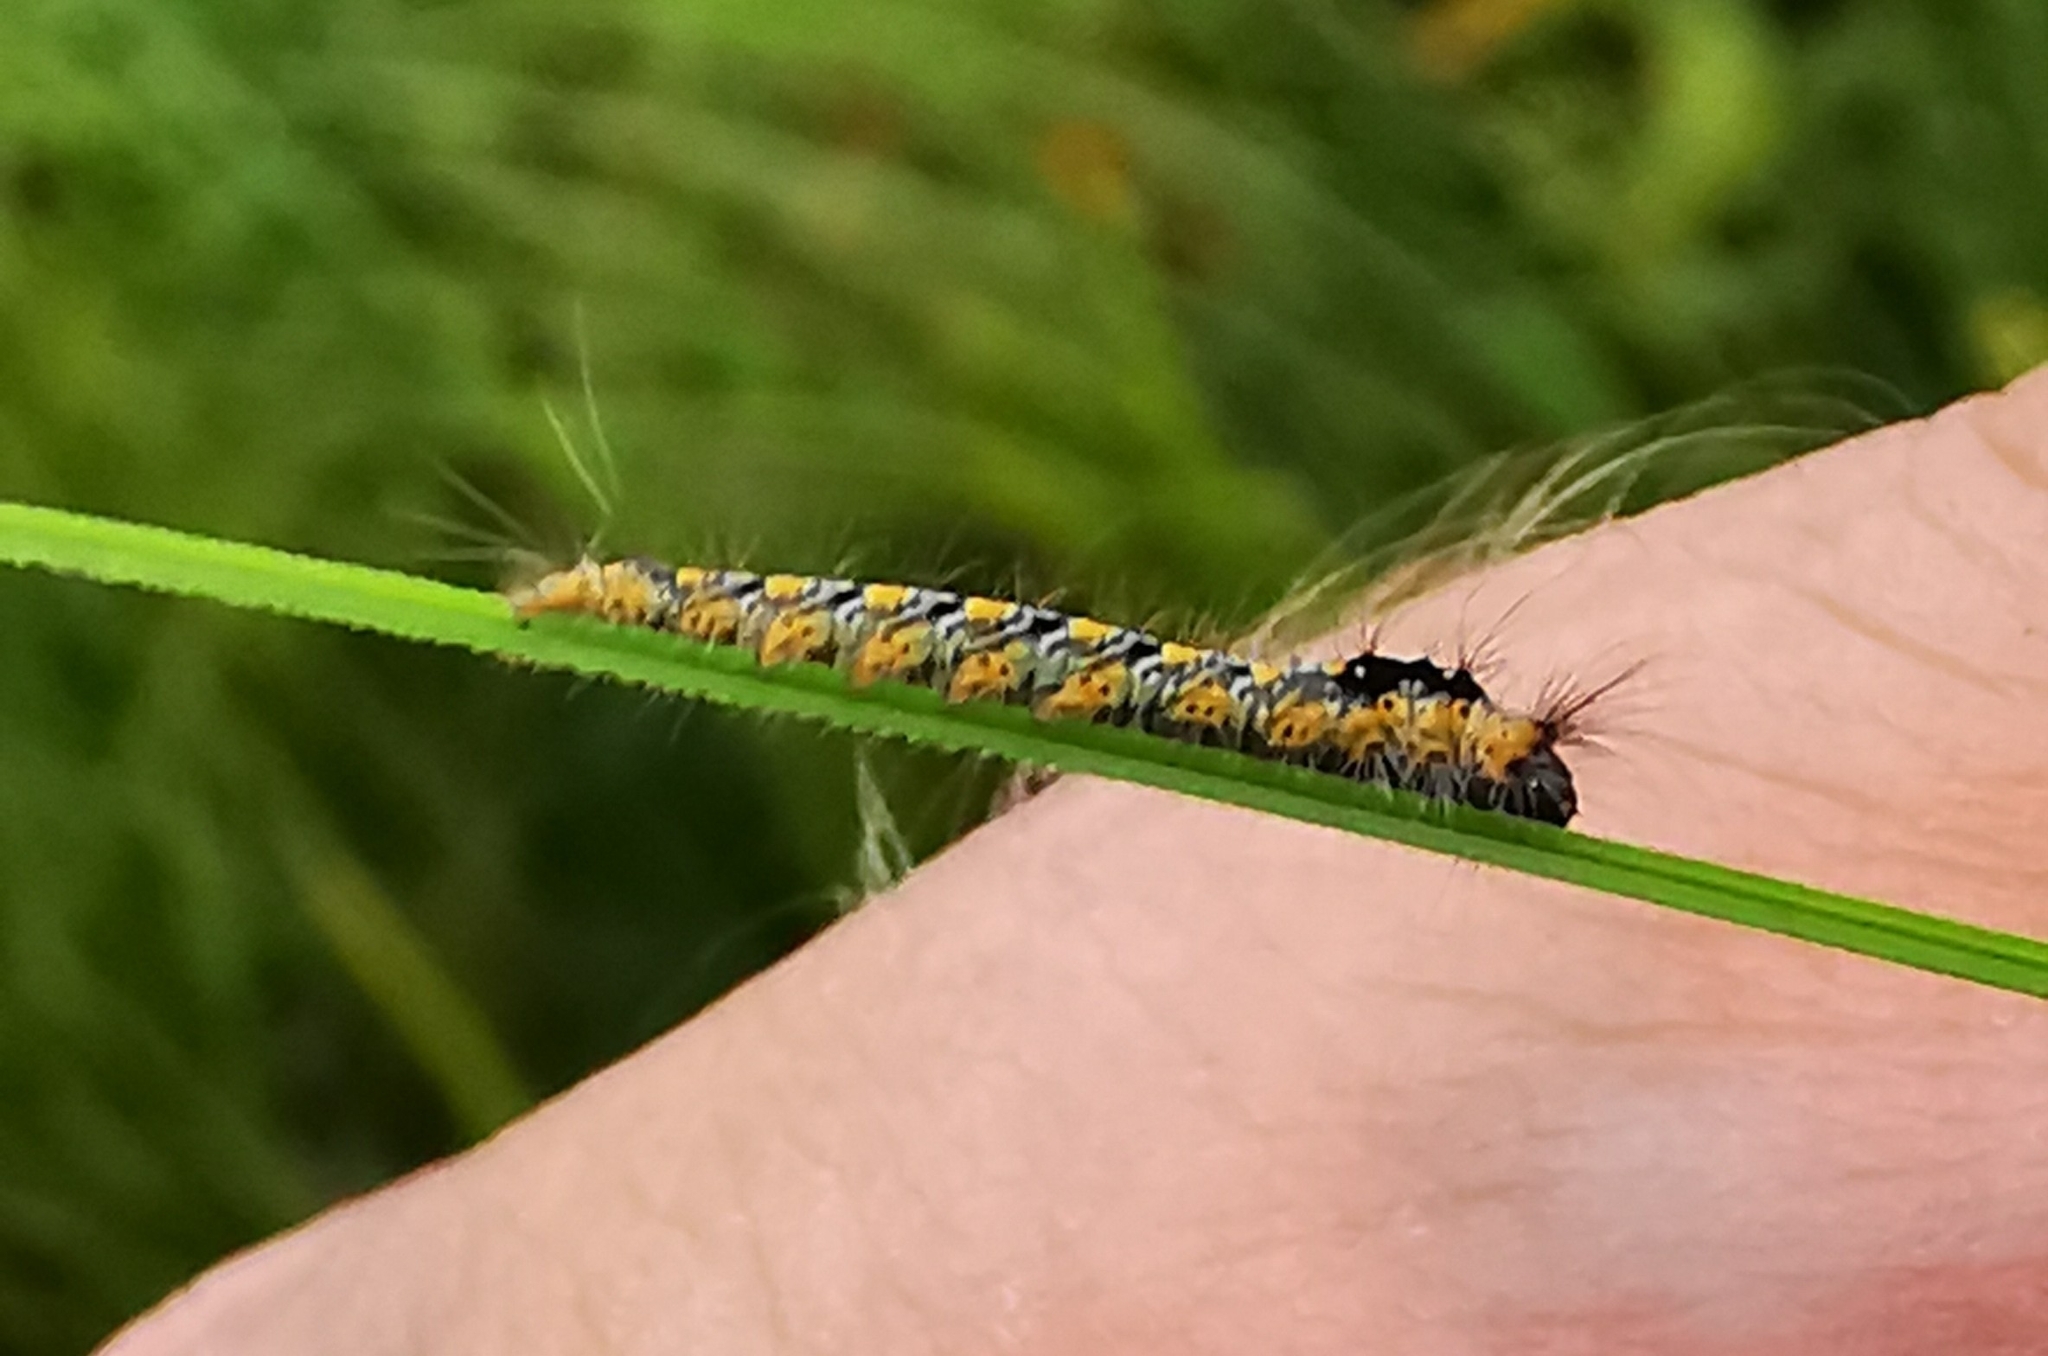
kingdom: Animalia
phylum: Arthropoda
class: Insecta
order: Lepidoptera
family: Lasiocampidae
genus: Euthrix
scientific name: Euthrix potatoria
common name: Drinker
